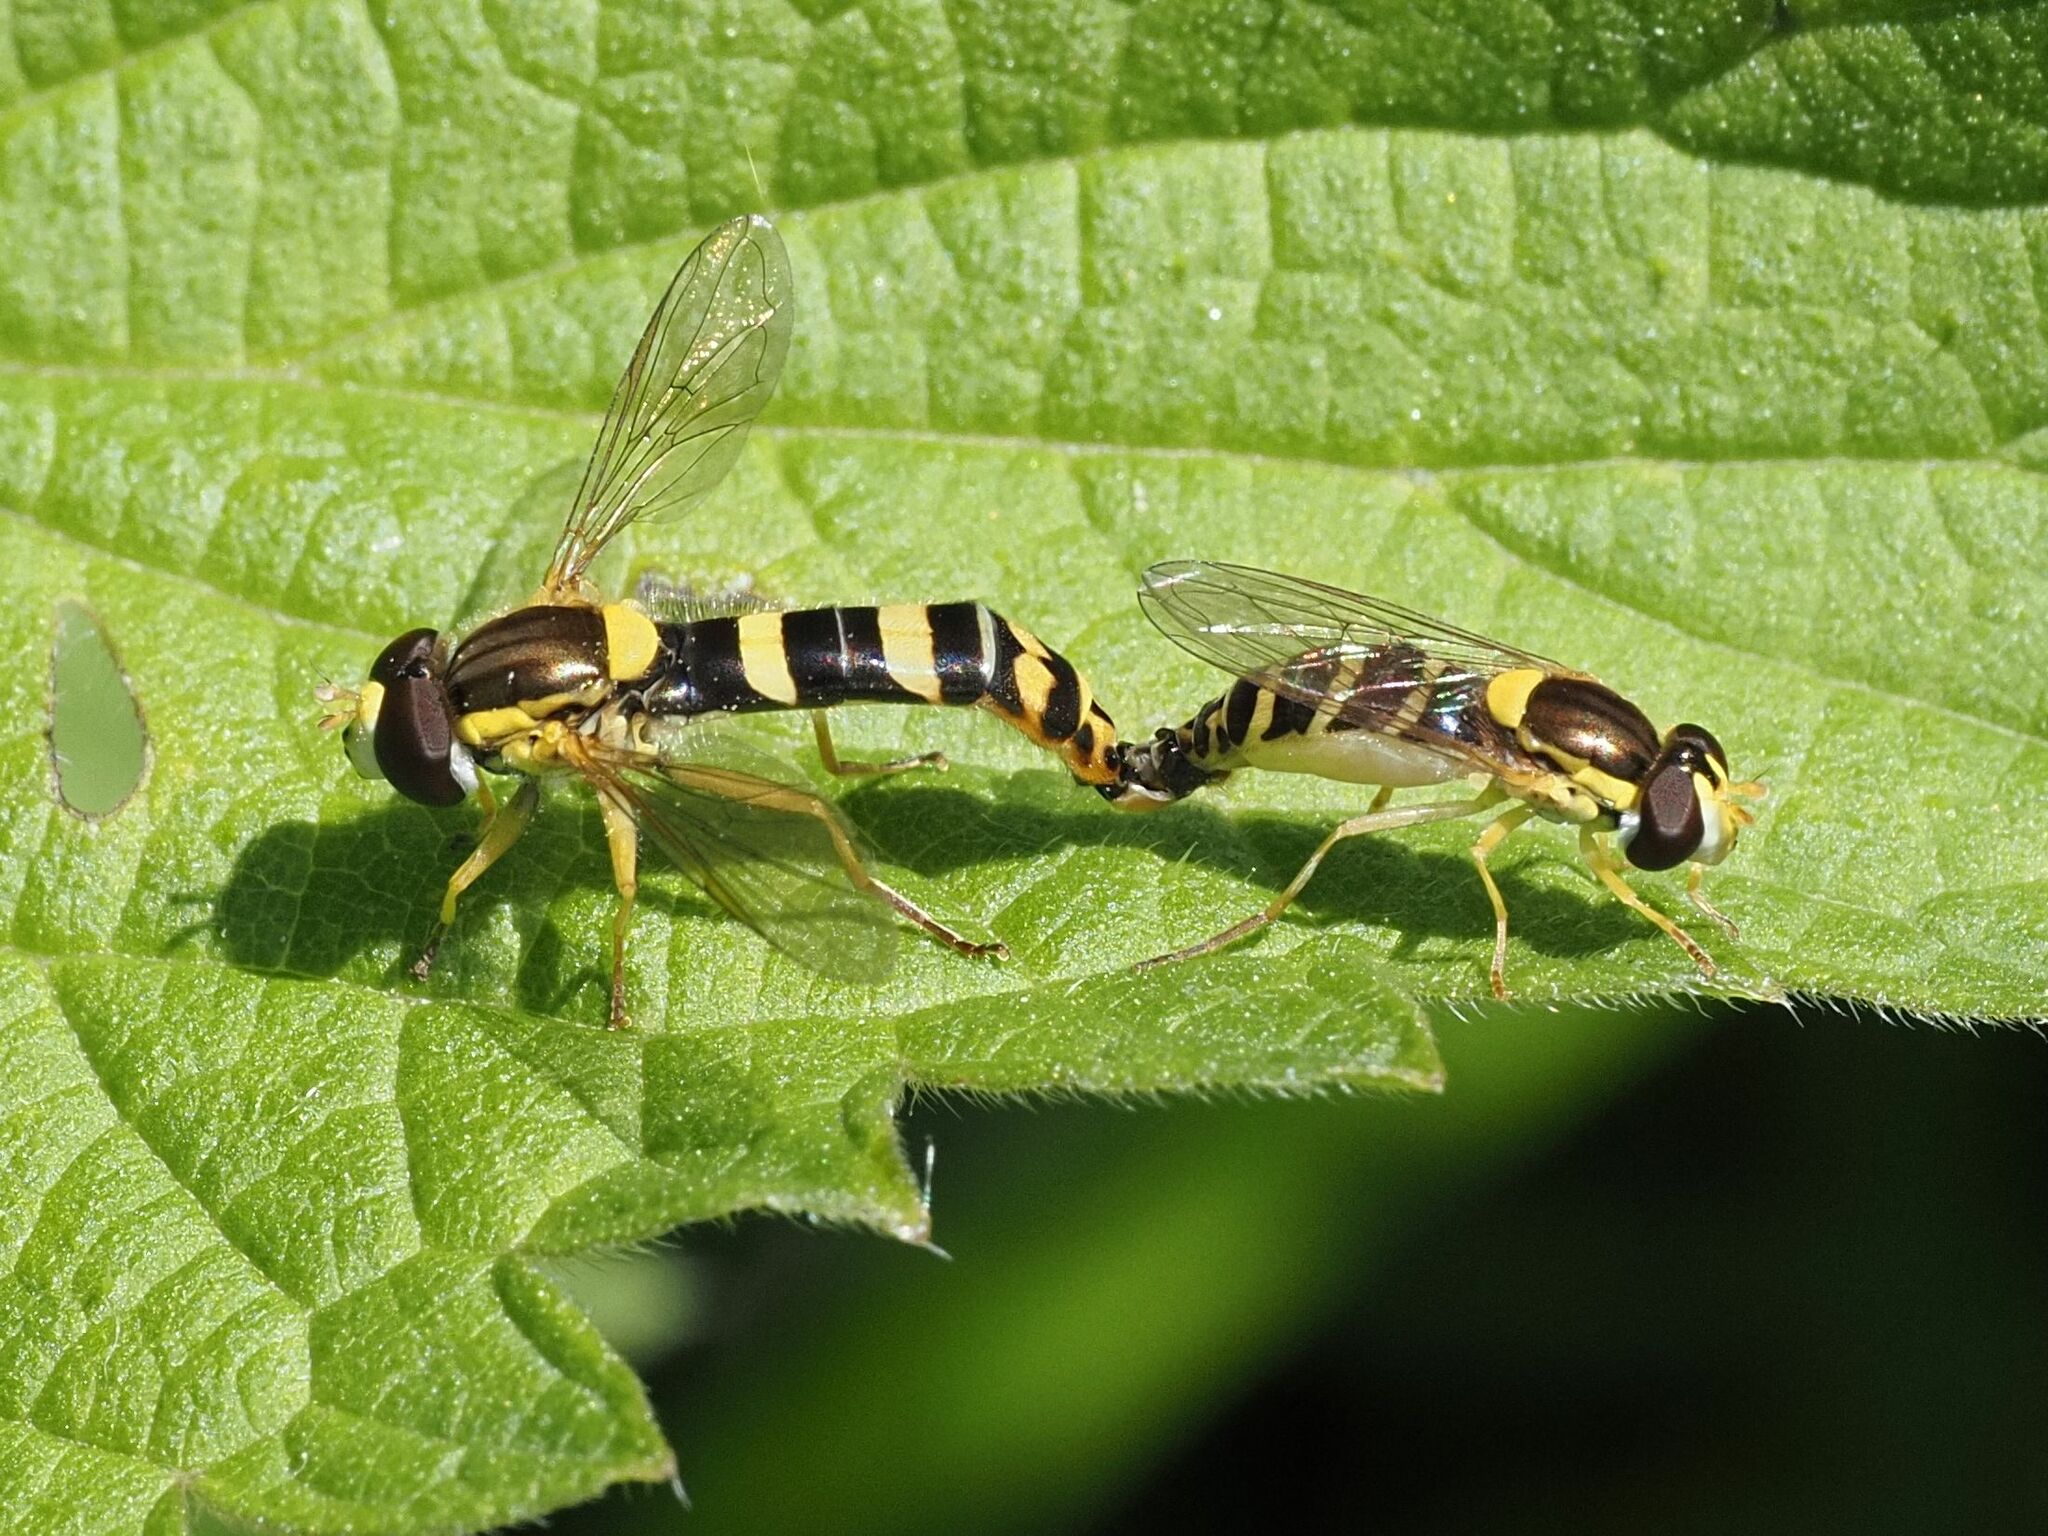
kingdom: Animalia
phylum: Arthropoda
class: Insecta
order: Diptera
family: Syrphidae
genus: Sphaerophoria
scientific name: Sphaerophoria scripta
